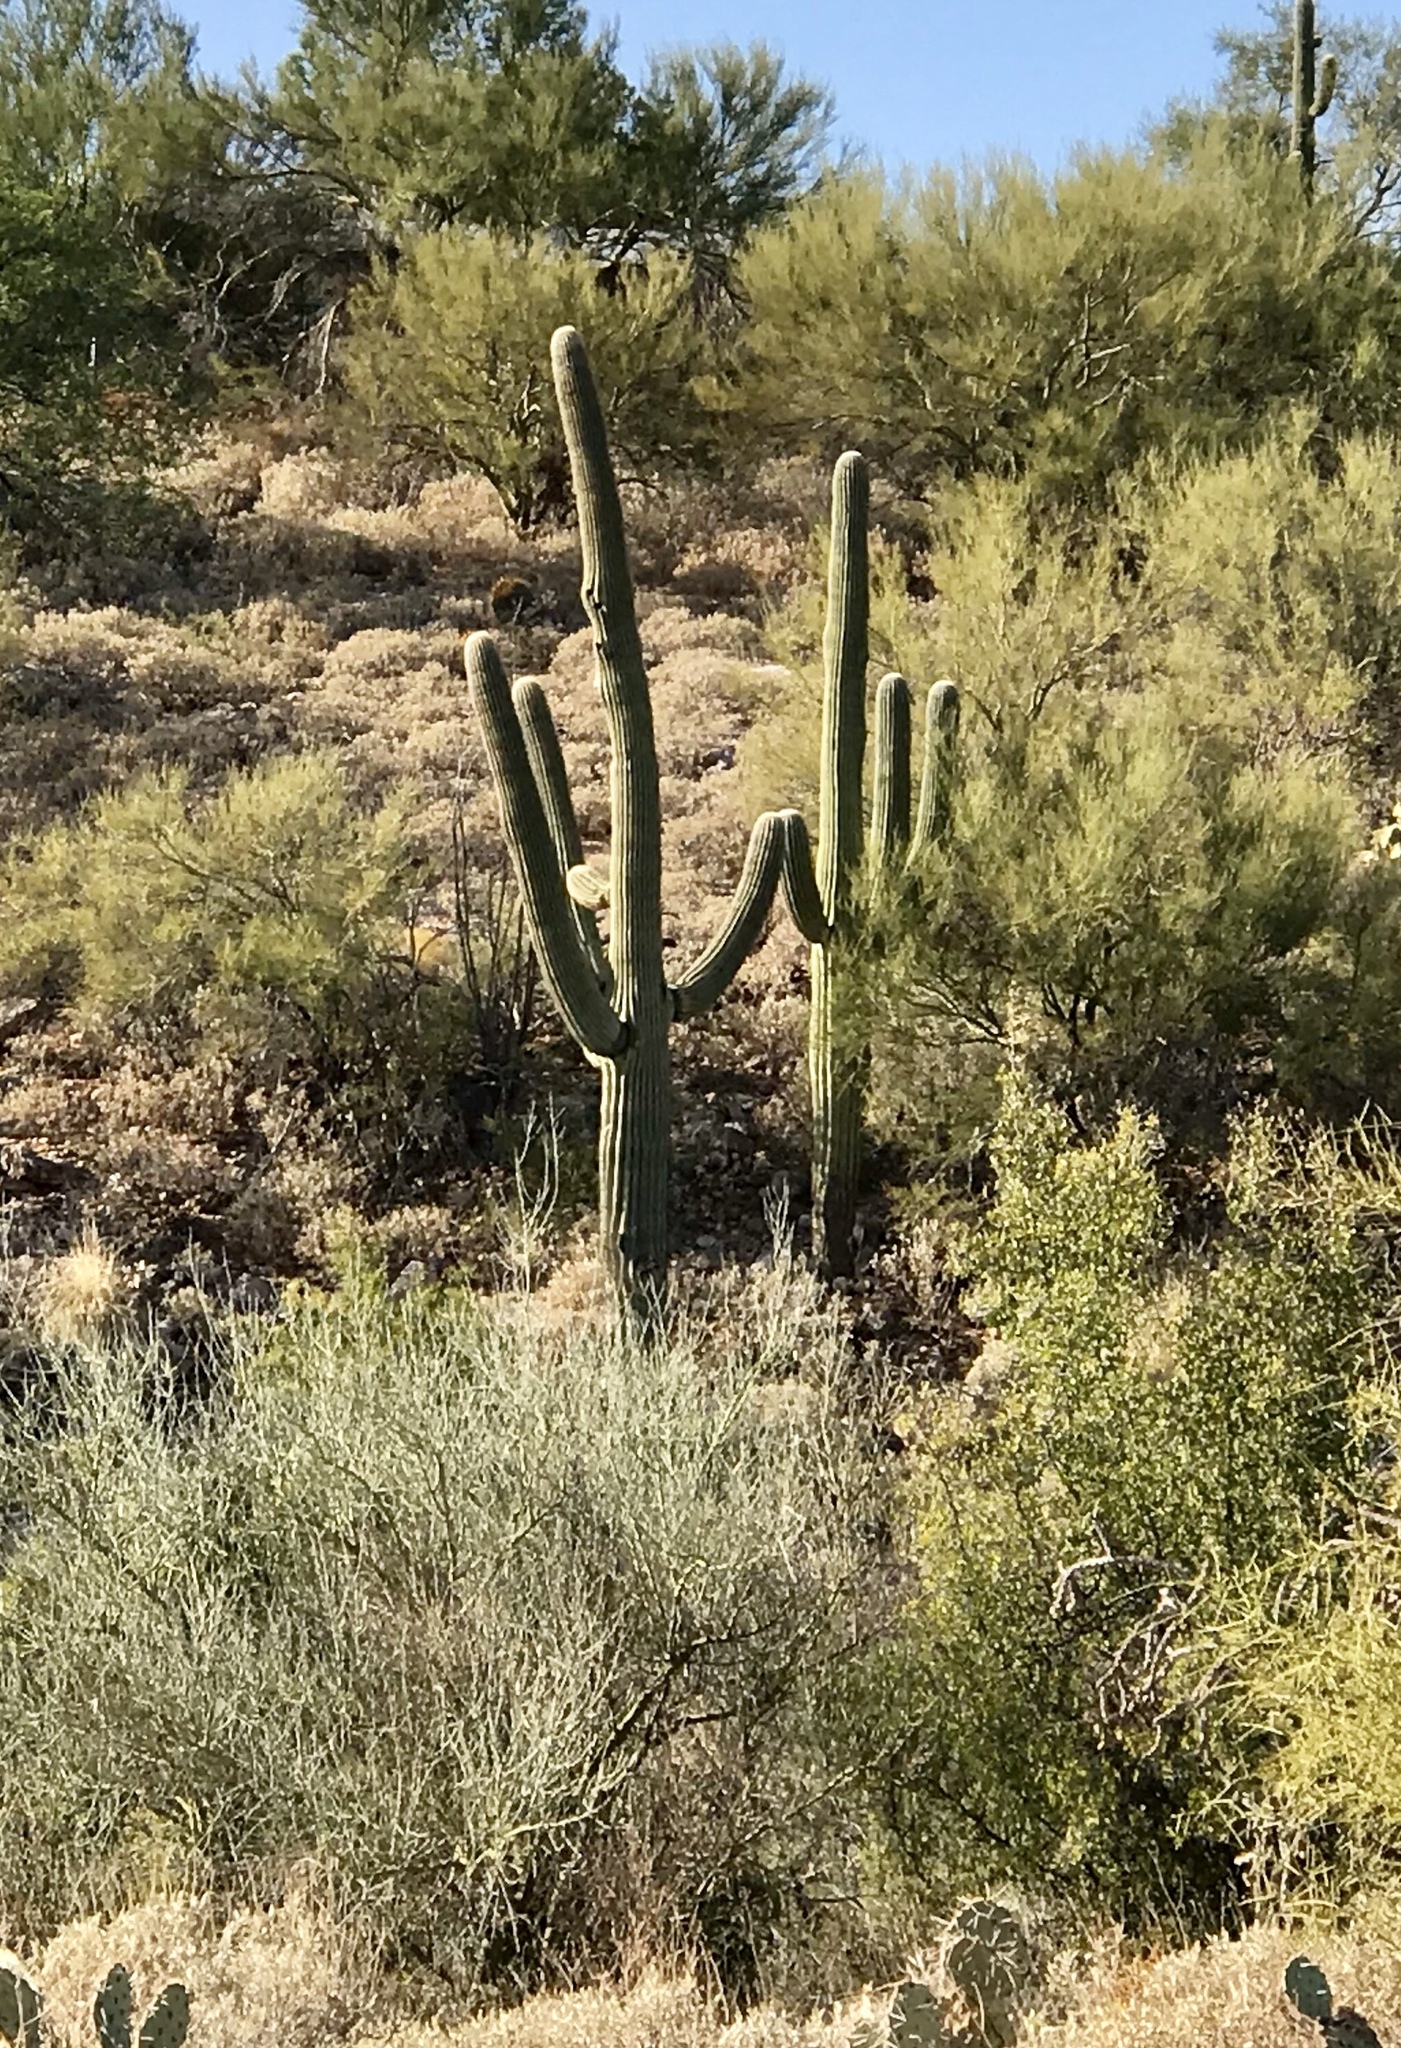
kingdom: Plantae
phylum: Tracheophyta
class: Magnoliopsida
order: Fabales
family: Fabaceae
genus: Parkinsonia
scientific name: Parkinsonia florida
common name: Blue paloverde
